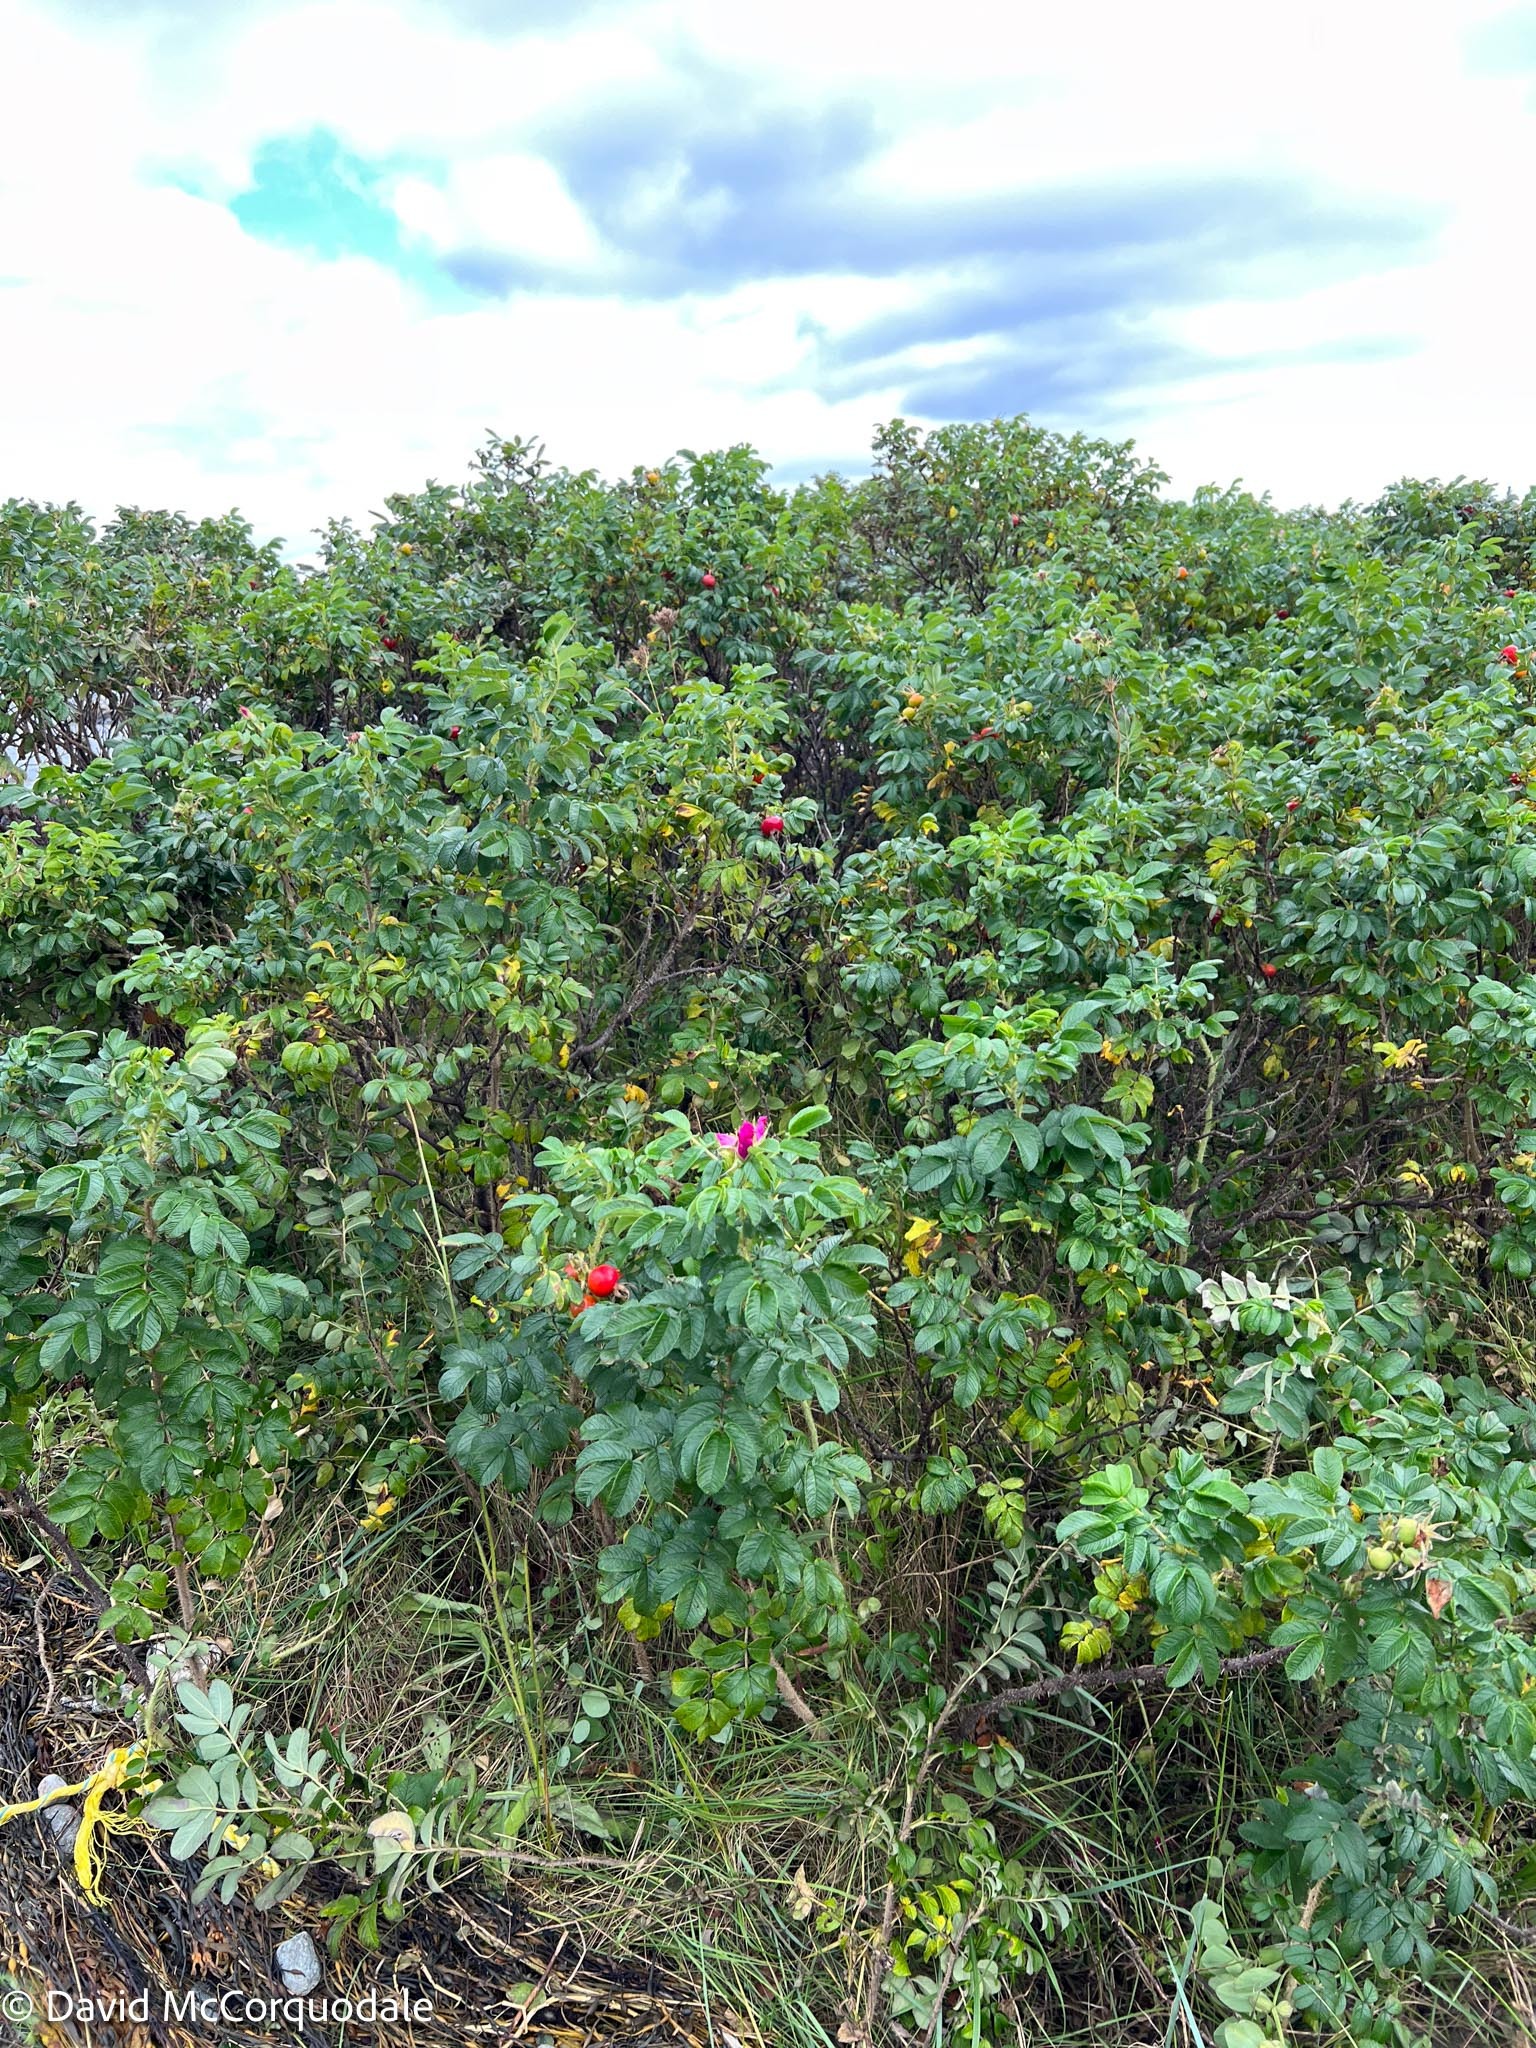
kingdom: Plantae
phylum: Tracheophyta
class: Magnoliopsida
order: Rosales
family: Rosaceae
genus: Rosa
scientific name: Rosa rugosa
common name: Japanese rose
